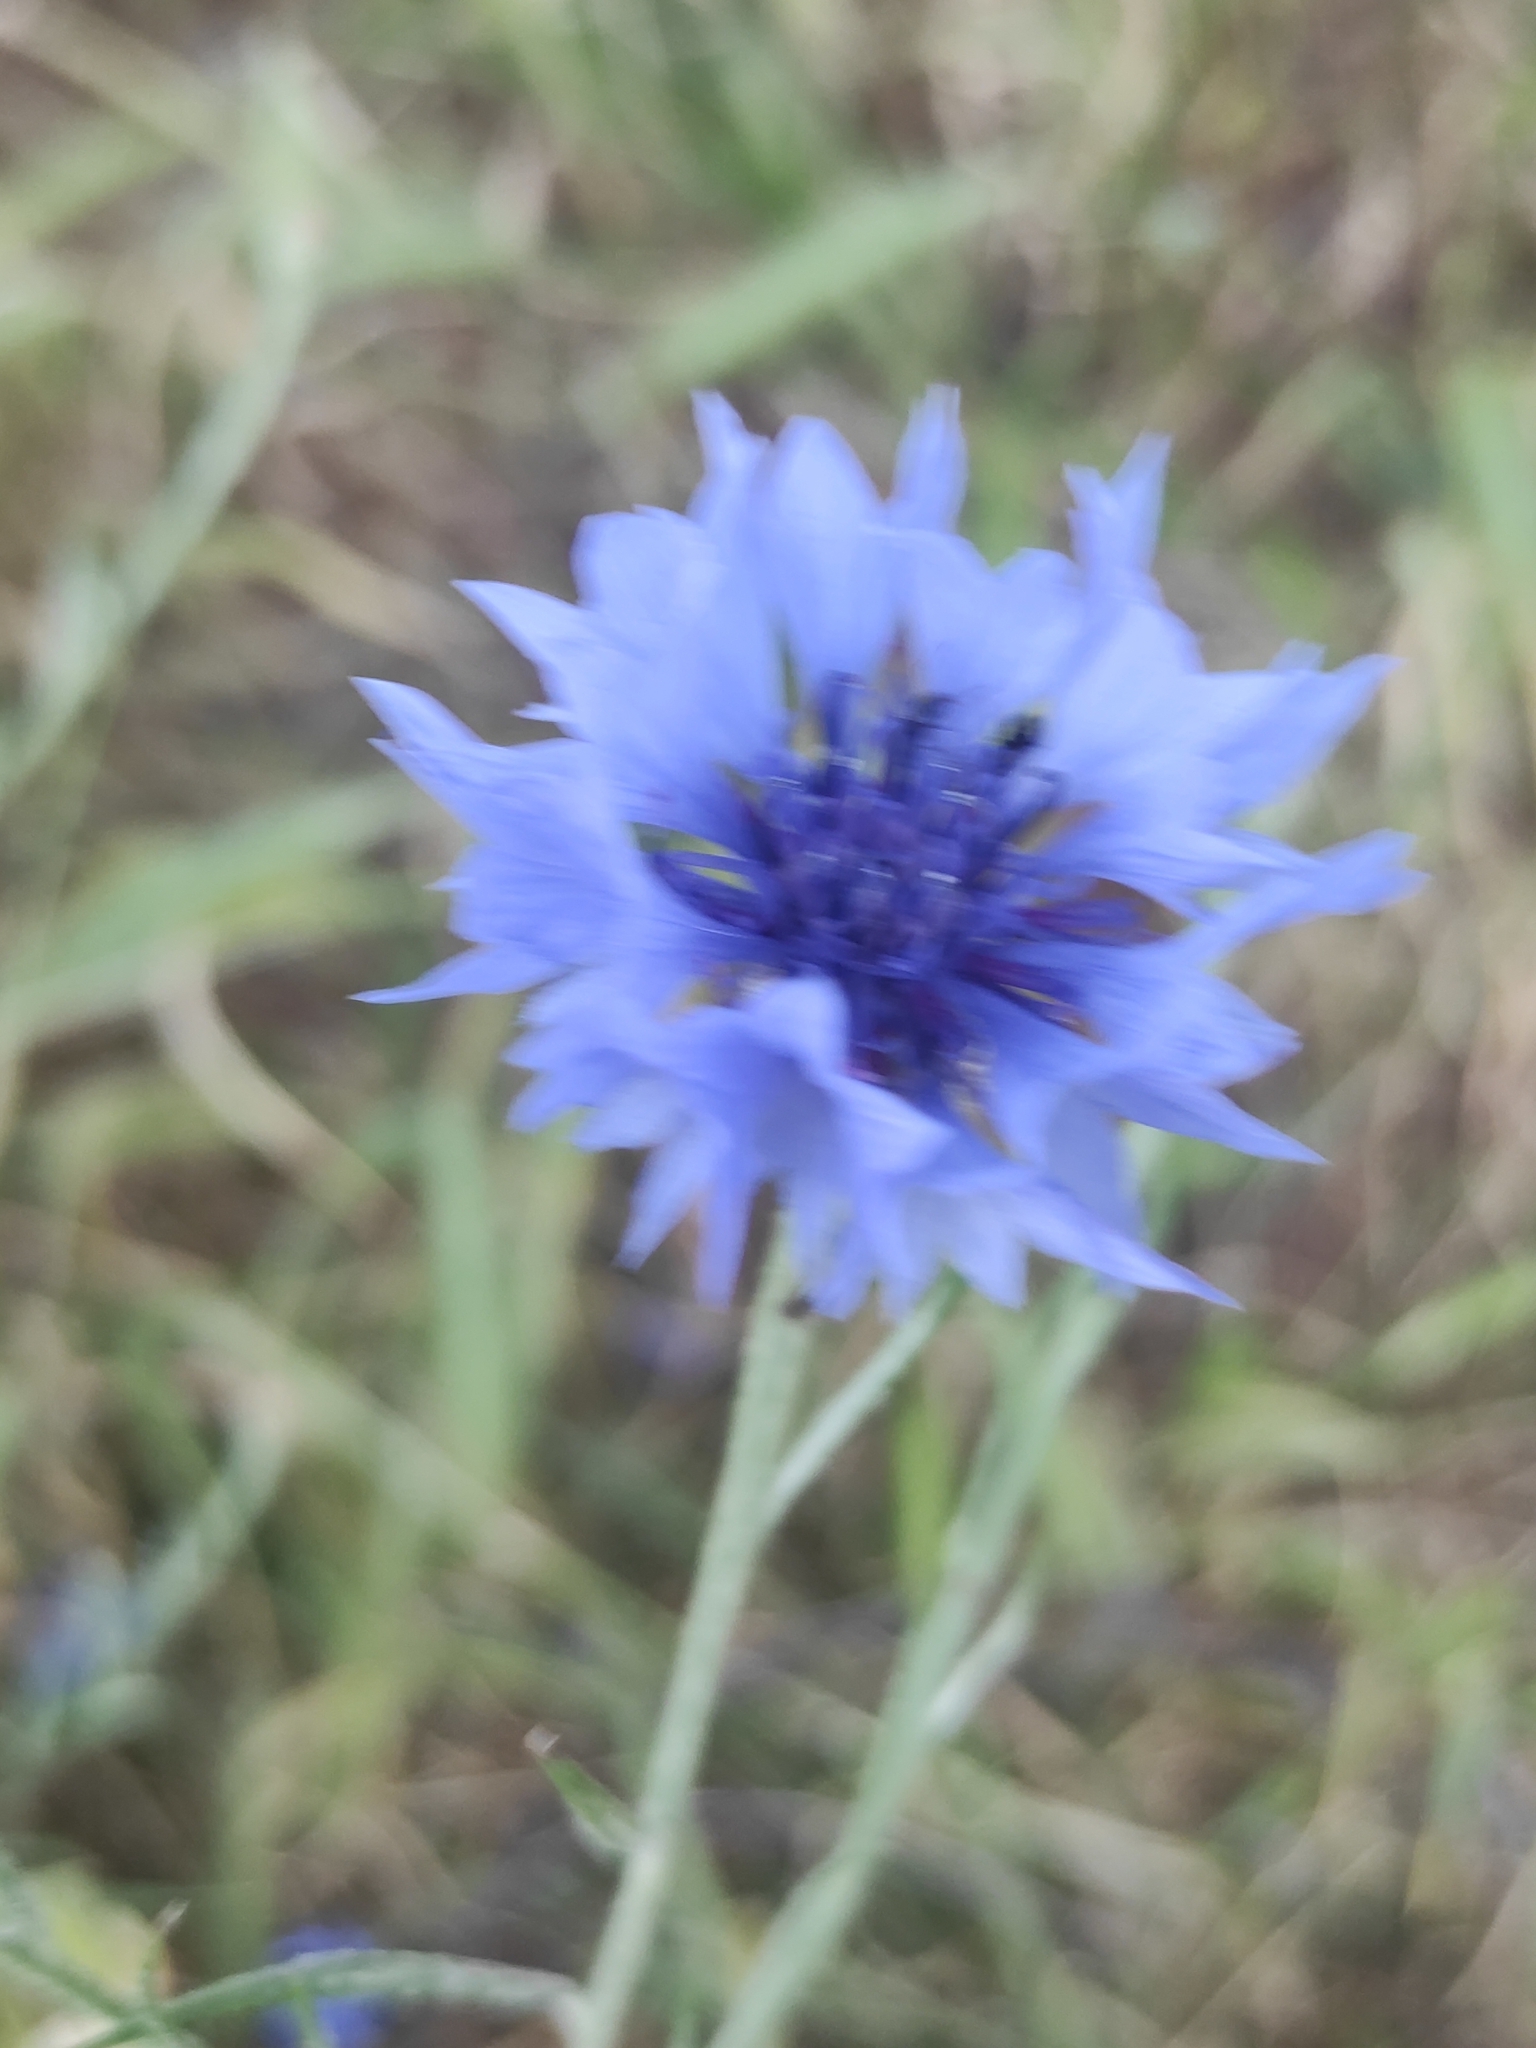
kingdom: Plantae
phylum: Tracheophyta
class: Magnoliopsida
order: Asterales
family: Asteraceae
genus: Centaurea
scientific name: Centaurea cyanus
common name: Cornflower
